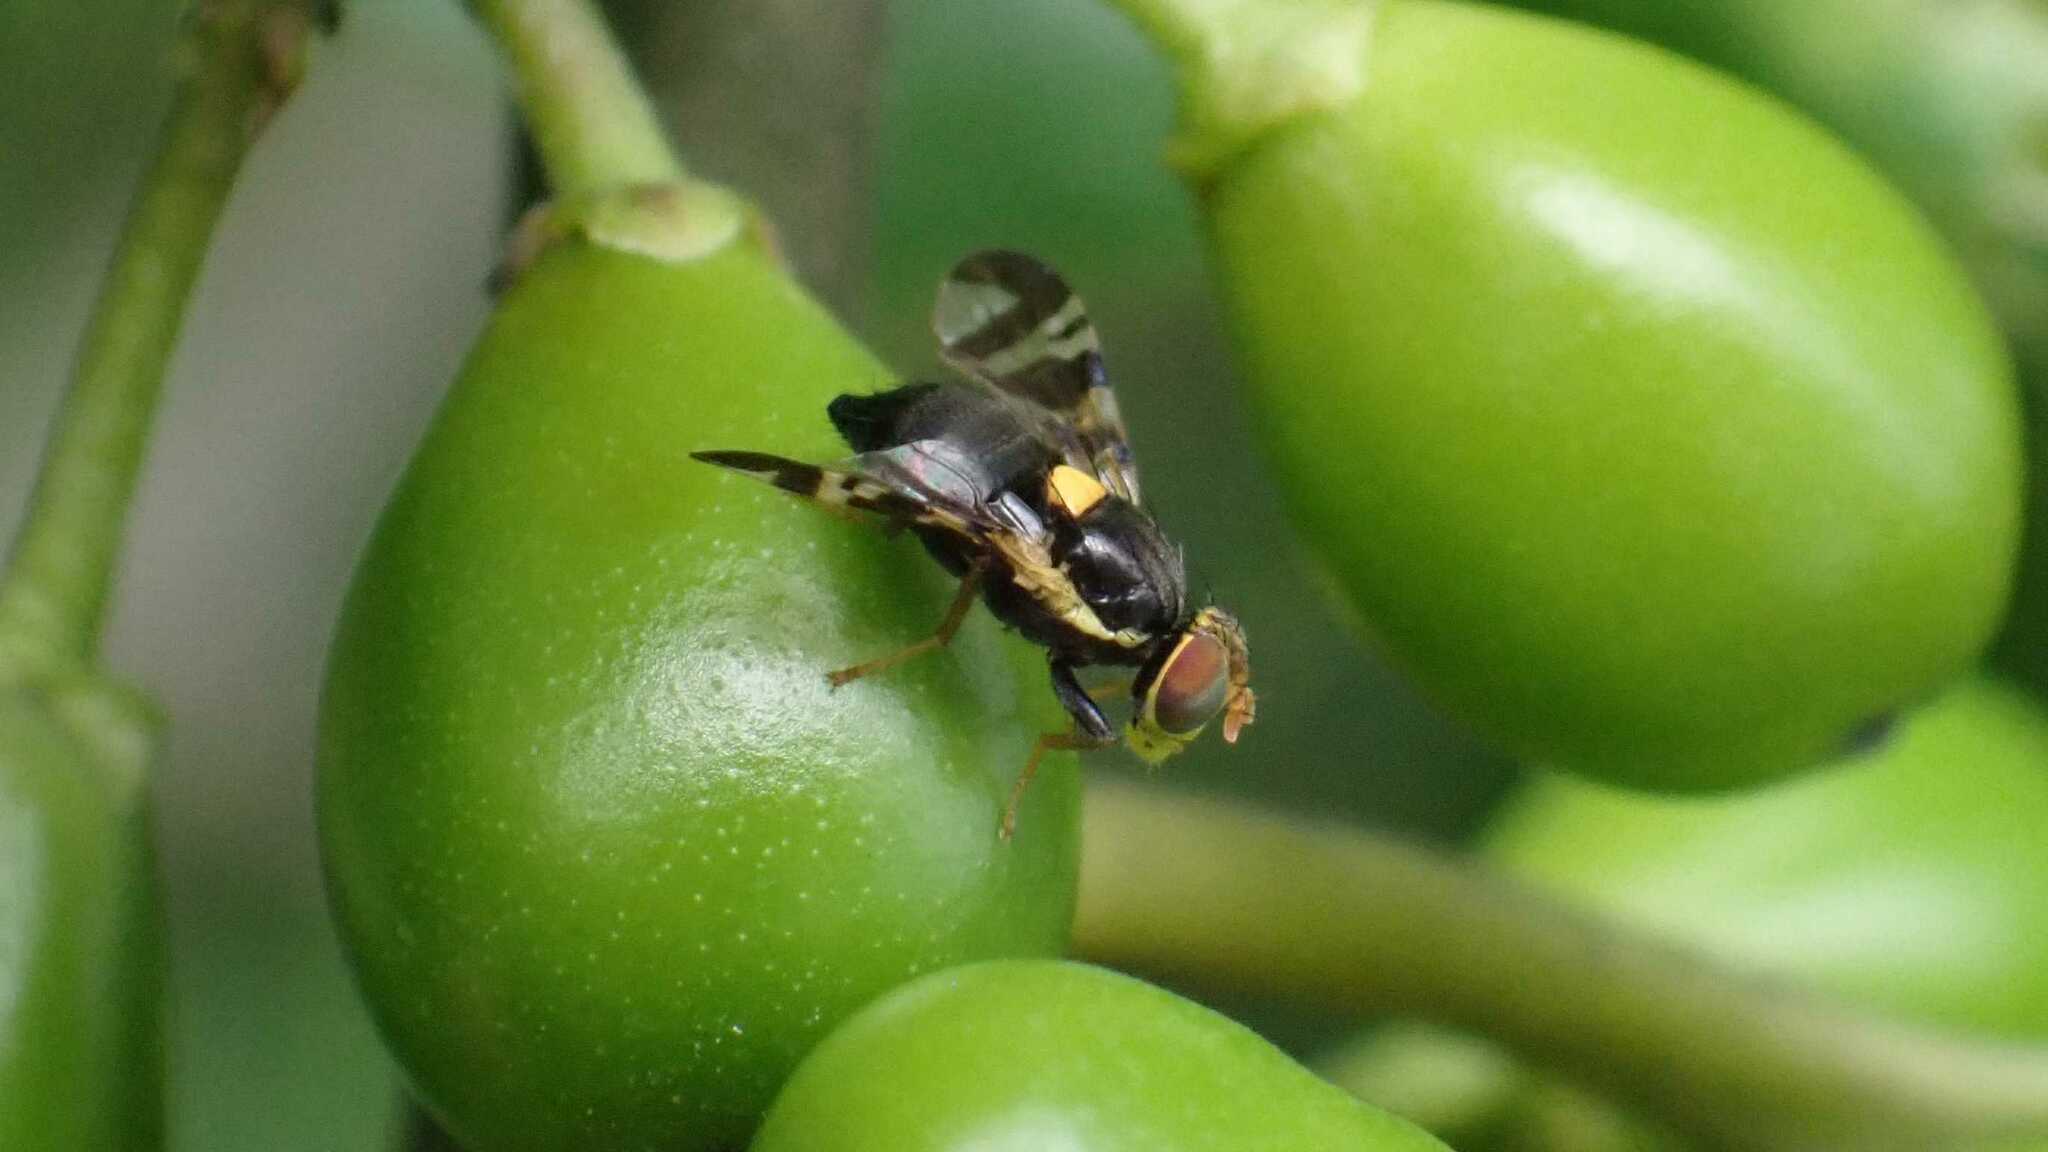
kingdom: Animalia
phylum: Arthropoda
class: Insecta
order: Diptera
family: Tephritidae
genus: Rhagoletis
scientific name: Rhagoletis cerasi
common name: European cherry fruit fly
